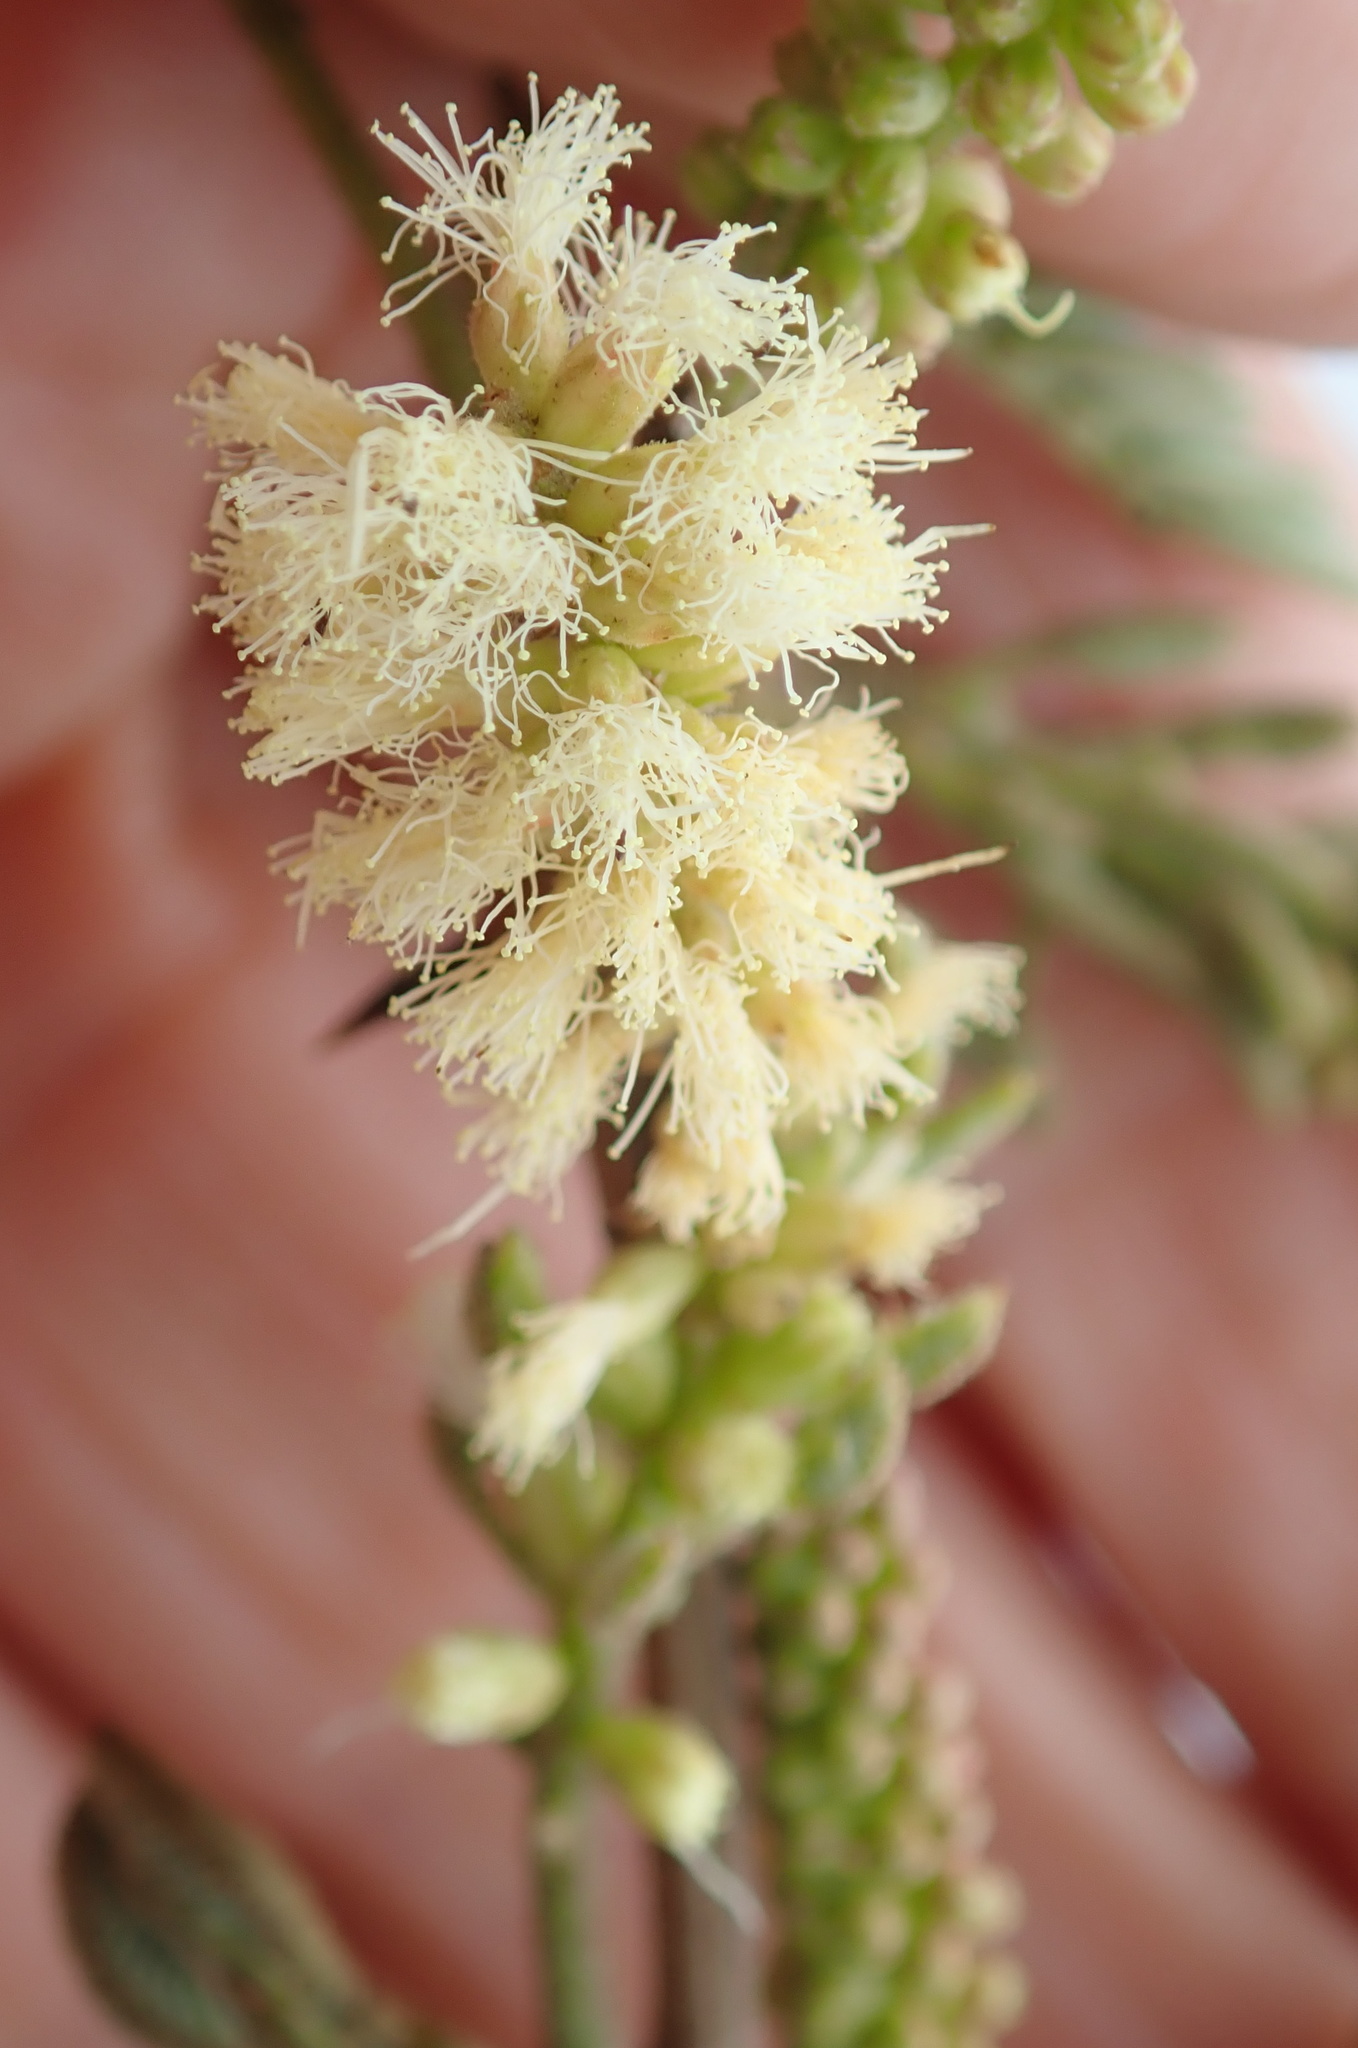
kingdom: Plantae
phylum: Tracheophyta
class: Magnoliopsida
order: Fabales
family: Fabaceae
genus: Senegalia
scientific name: Senegalia caffra
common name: Cat thorn
